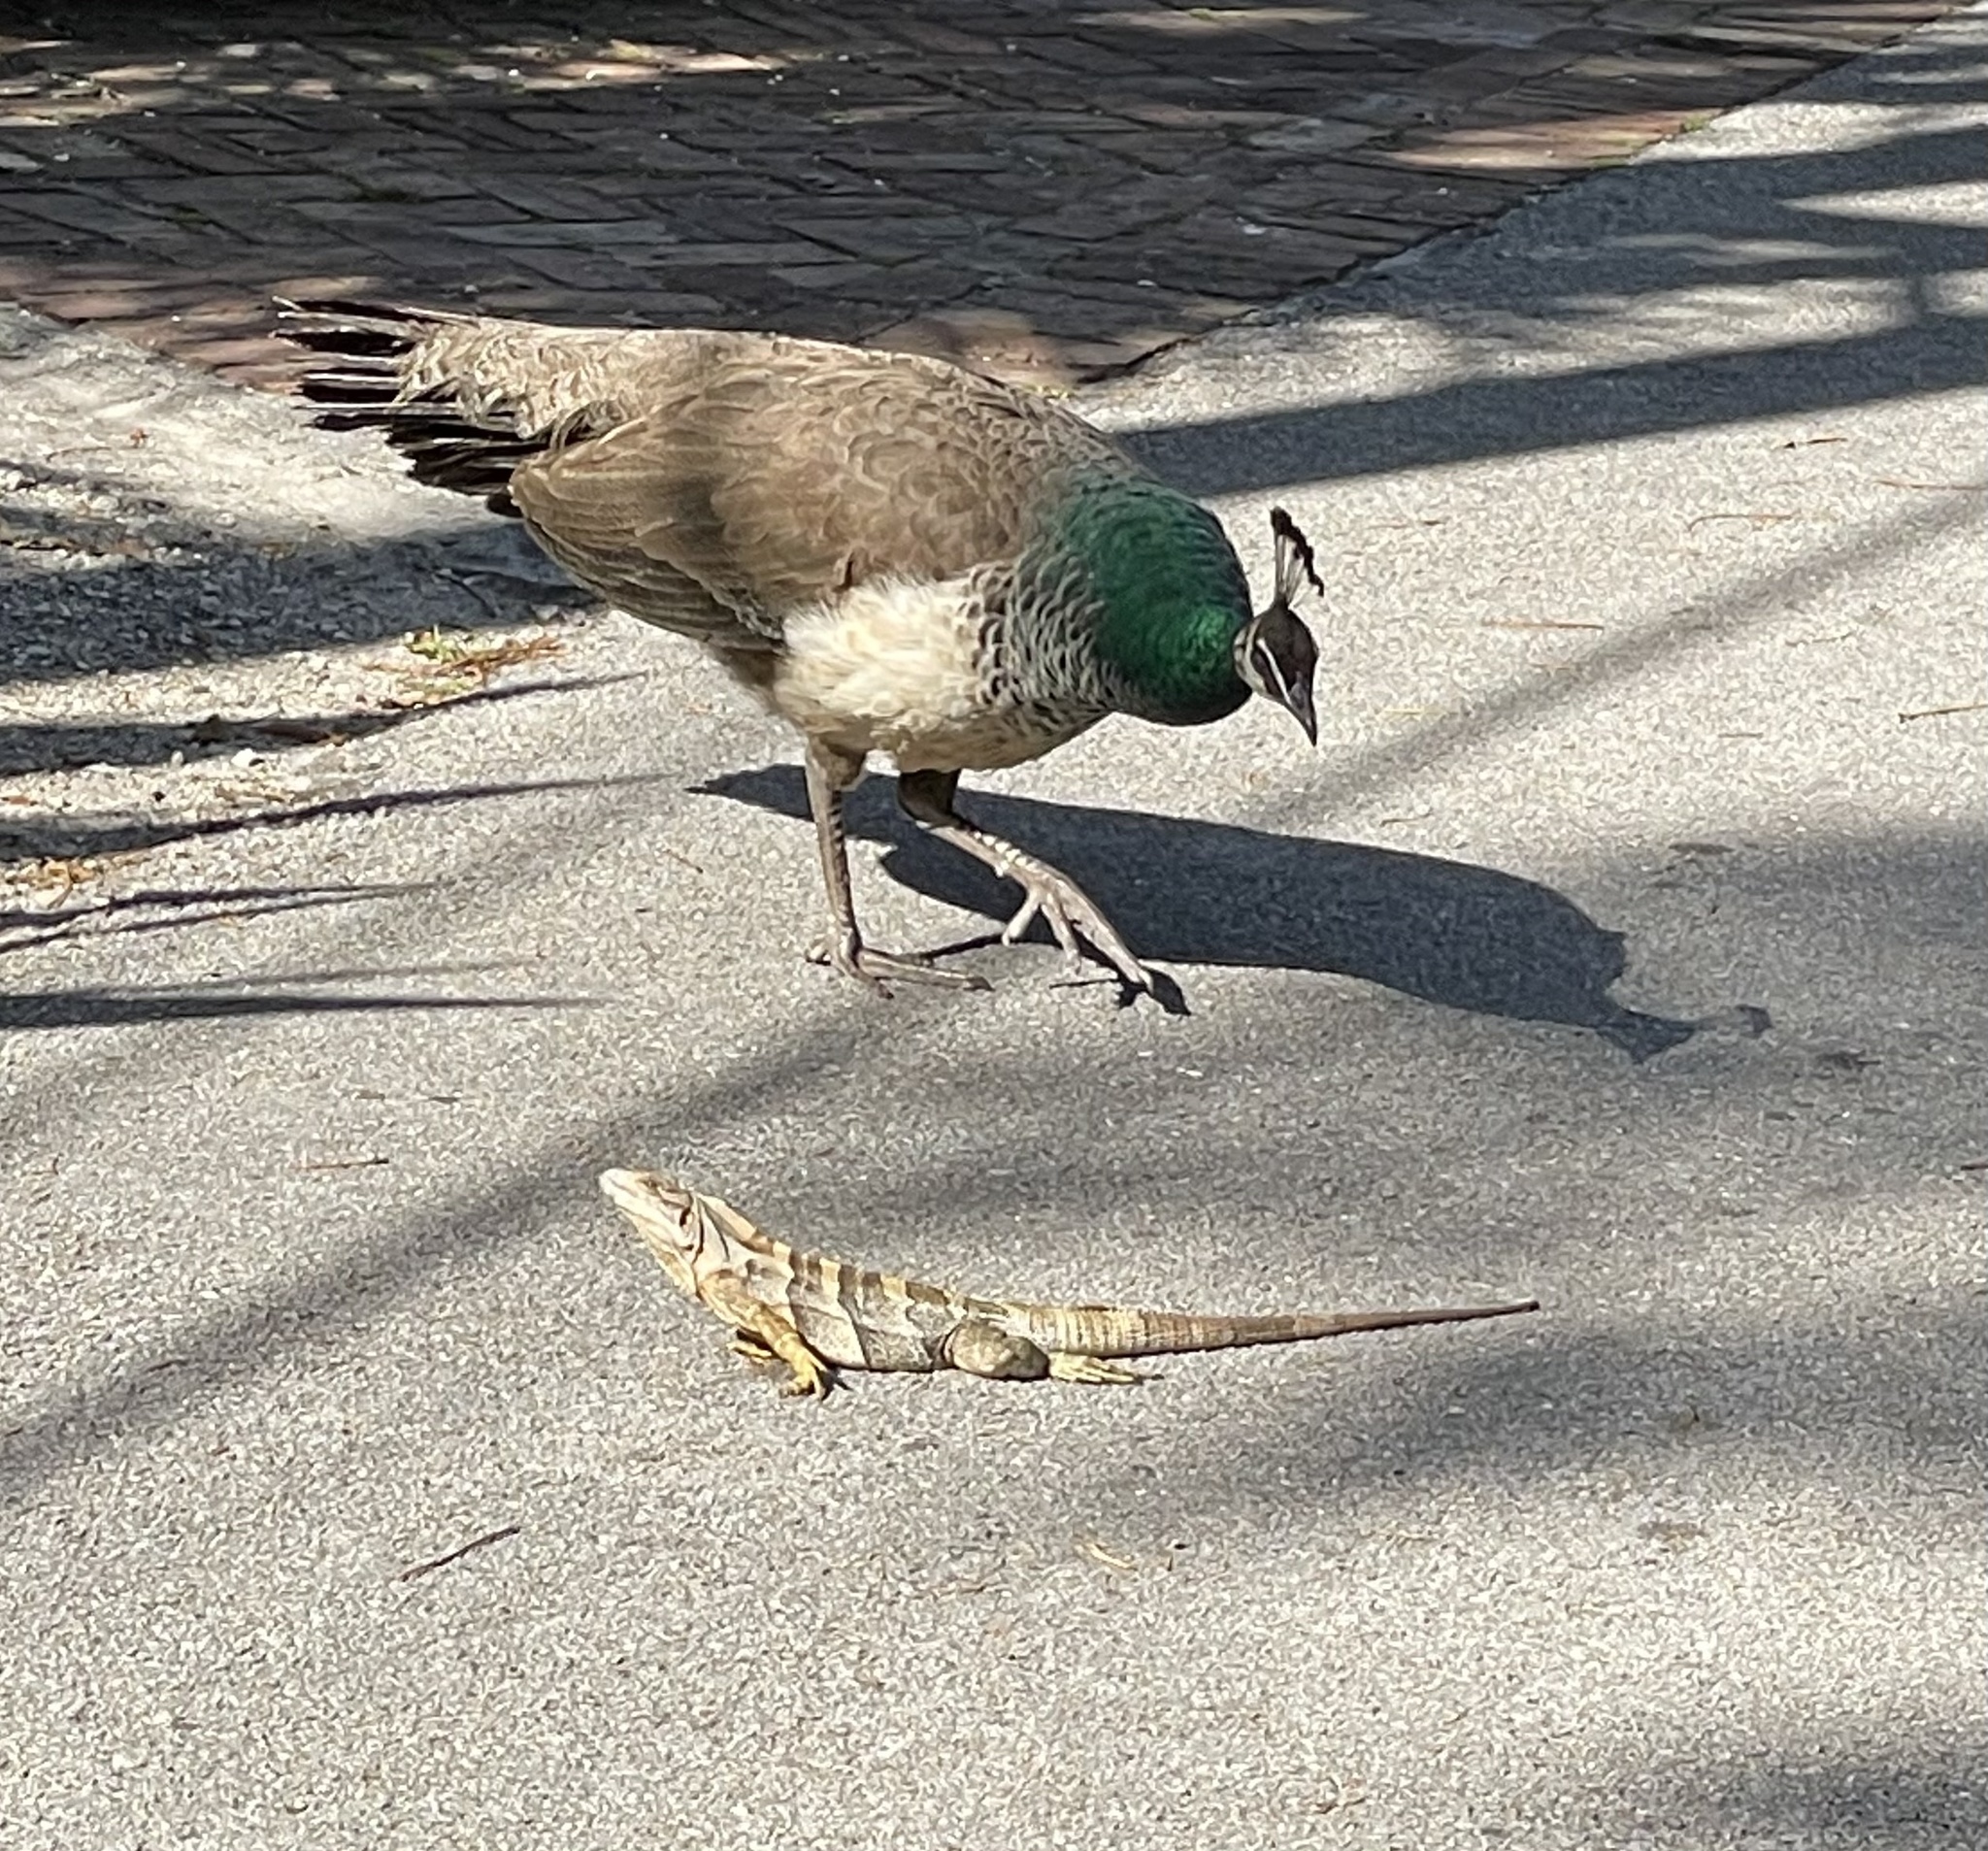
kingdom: Animalia
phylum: Chordata
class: Squamata
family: Iguanidae
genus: Ctenosaura
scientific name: Ctenosaura similis
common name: Black spiny-tailed iguana
